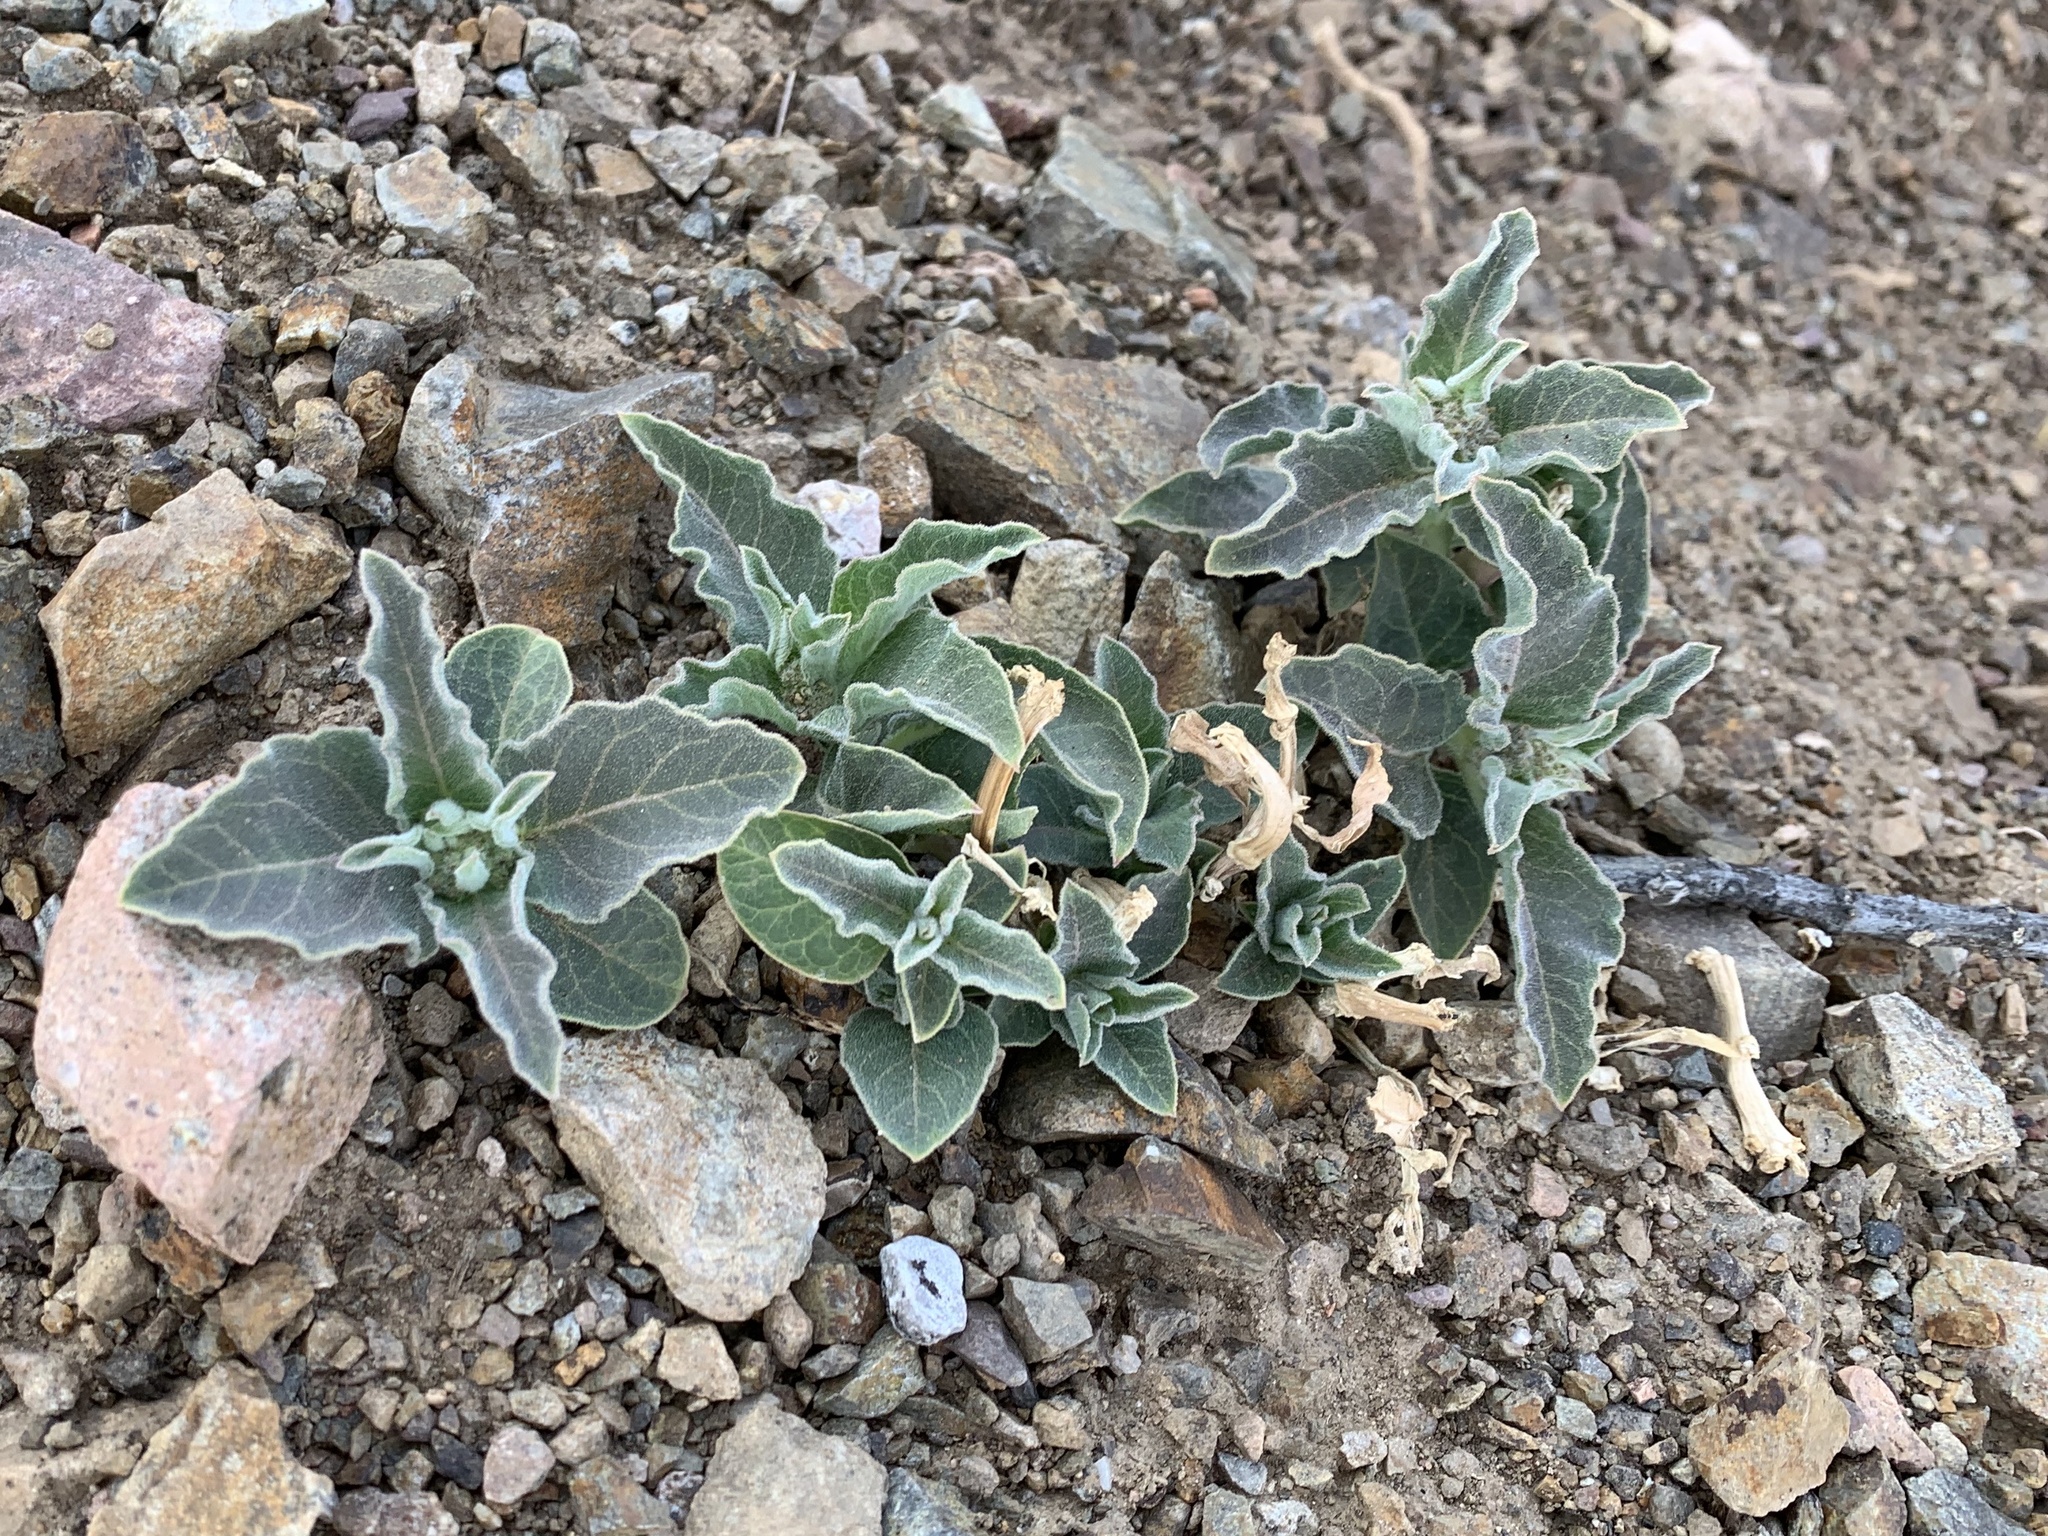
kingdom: Plantae
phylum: Tracheophyta
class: Magnoliopsida
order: Gentianales
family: Apocynaceae
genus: Asclepias
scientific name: Asclepias nyctaginifolia
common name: Mojave milkweed
